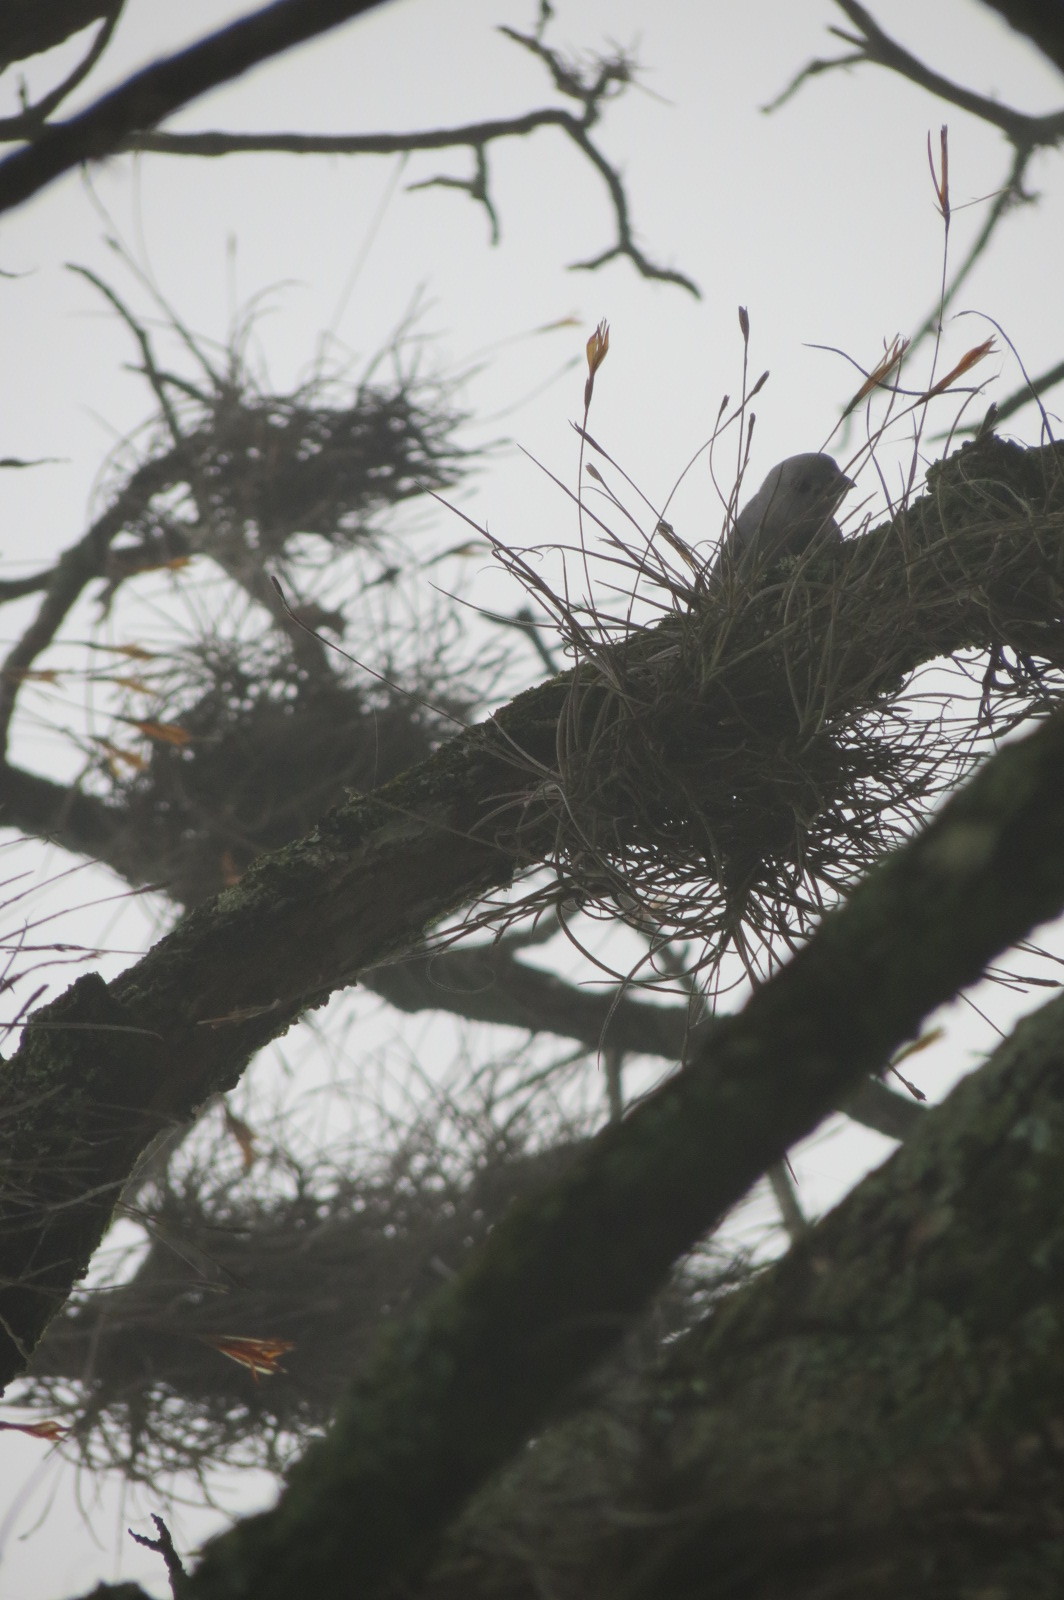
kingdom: Plantae
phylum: Tracheophyta
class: Liliopsida
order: Poales
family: Bromeliaceae
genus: Tillandsia
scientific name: Tillandsia recurvata
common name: Small ballmoss
